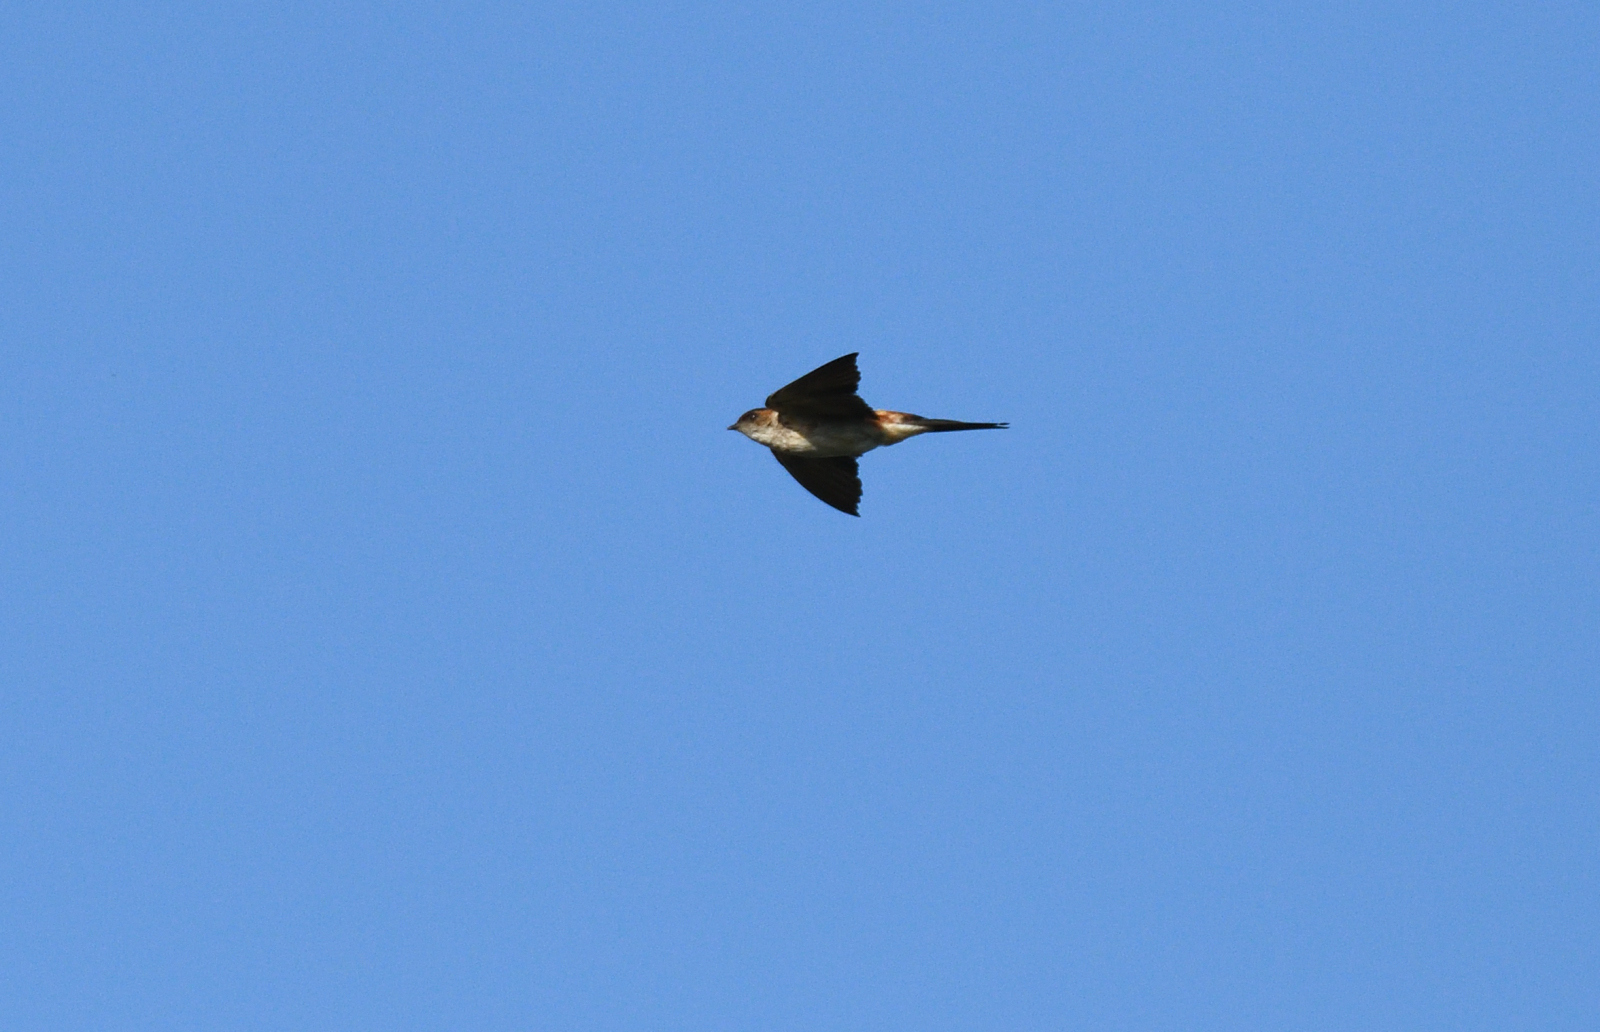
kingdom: Animalia
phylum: Chordata
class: Aves
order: Passeriformes
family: Hirundinidae
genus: Cecropis
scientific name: Cecropis daurica
